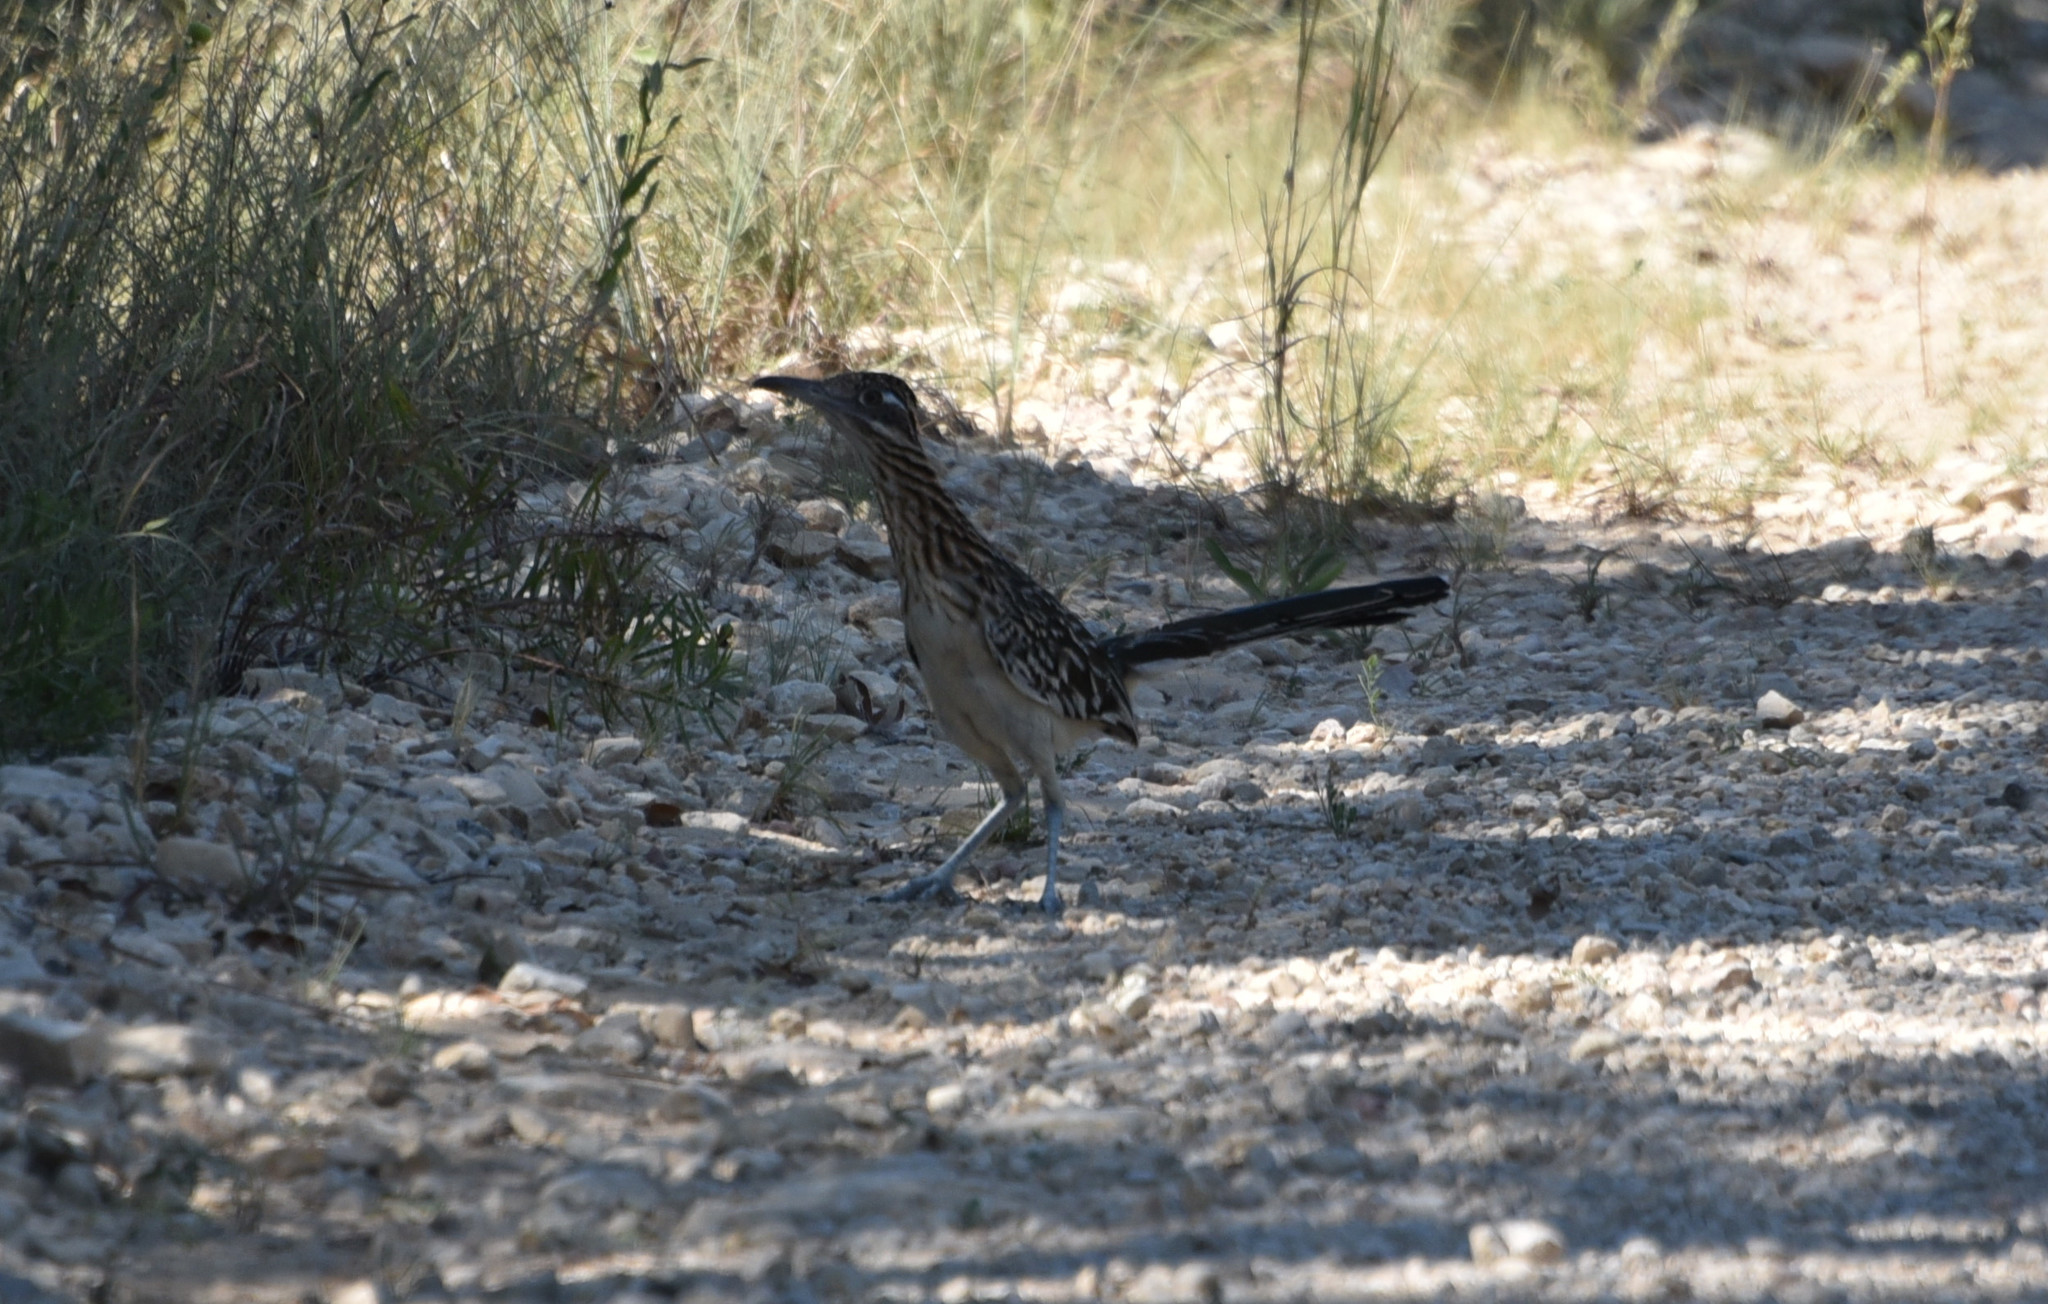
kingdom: Animalia
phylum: Chordata
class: Aves
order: Cuculiformes
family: Cuculidae
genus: Geococcyx
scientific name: Geococcyx californianus
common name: Greater roadrunner
